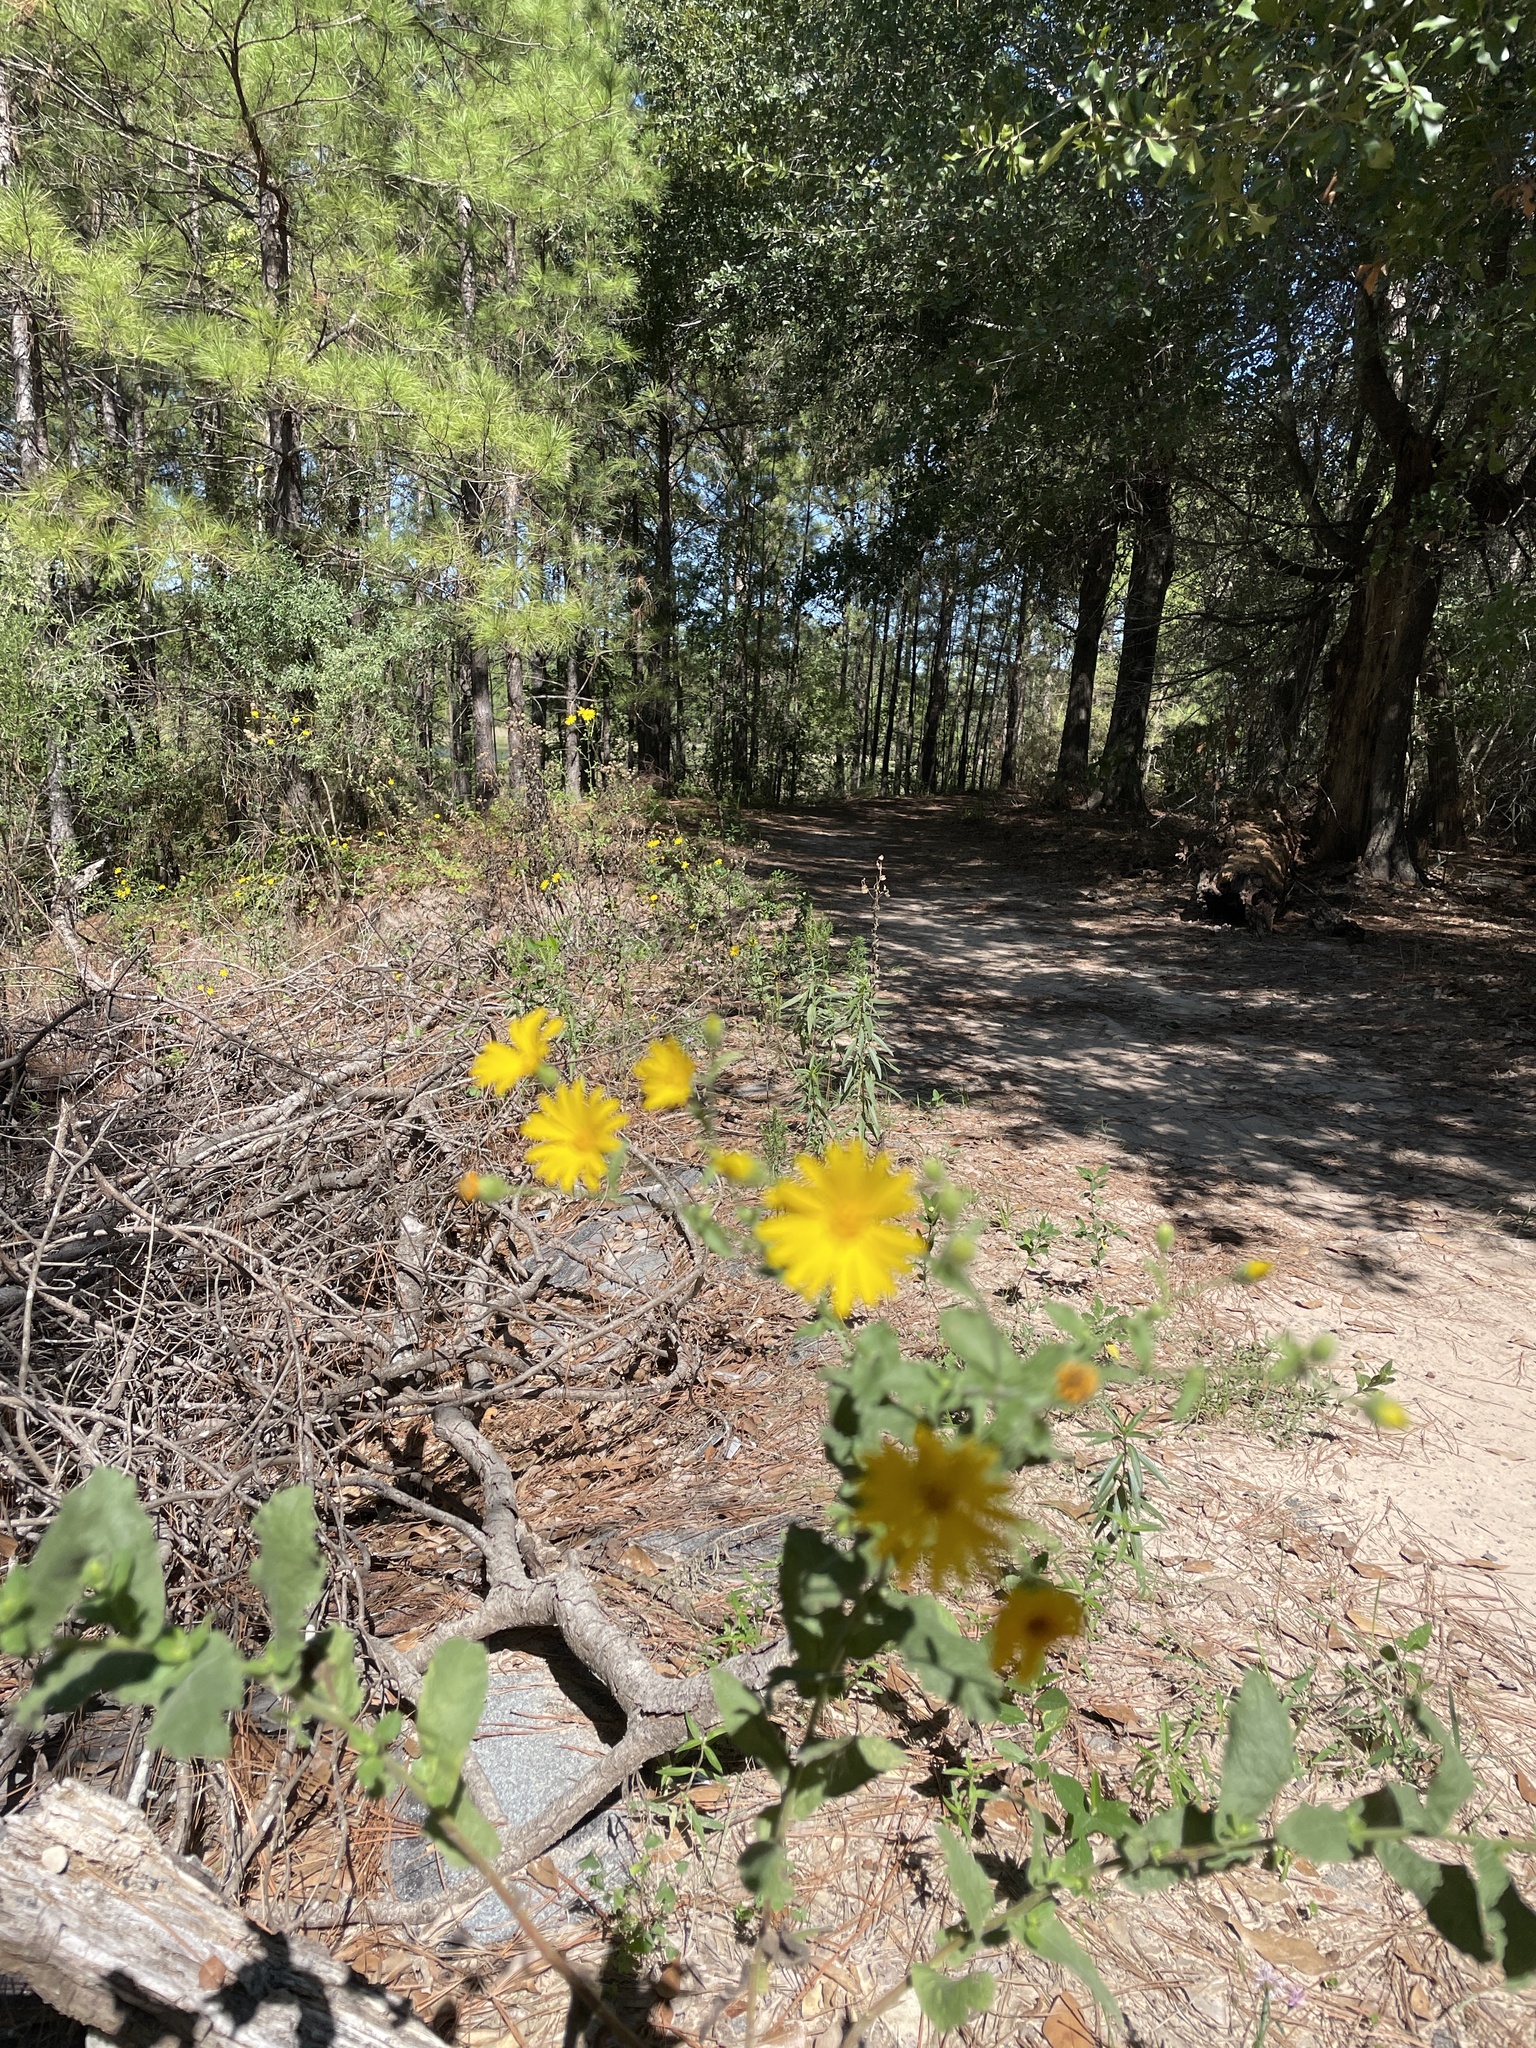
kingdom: Plantae
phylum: Tracheophyta
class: Magnoliopsida
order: Asterales
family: Asteraceae
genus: Heterotheca
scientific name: Heterotheca subaxillaris
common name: Camphorweed
